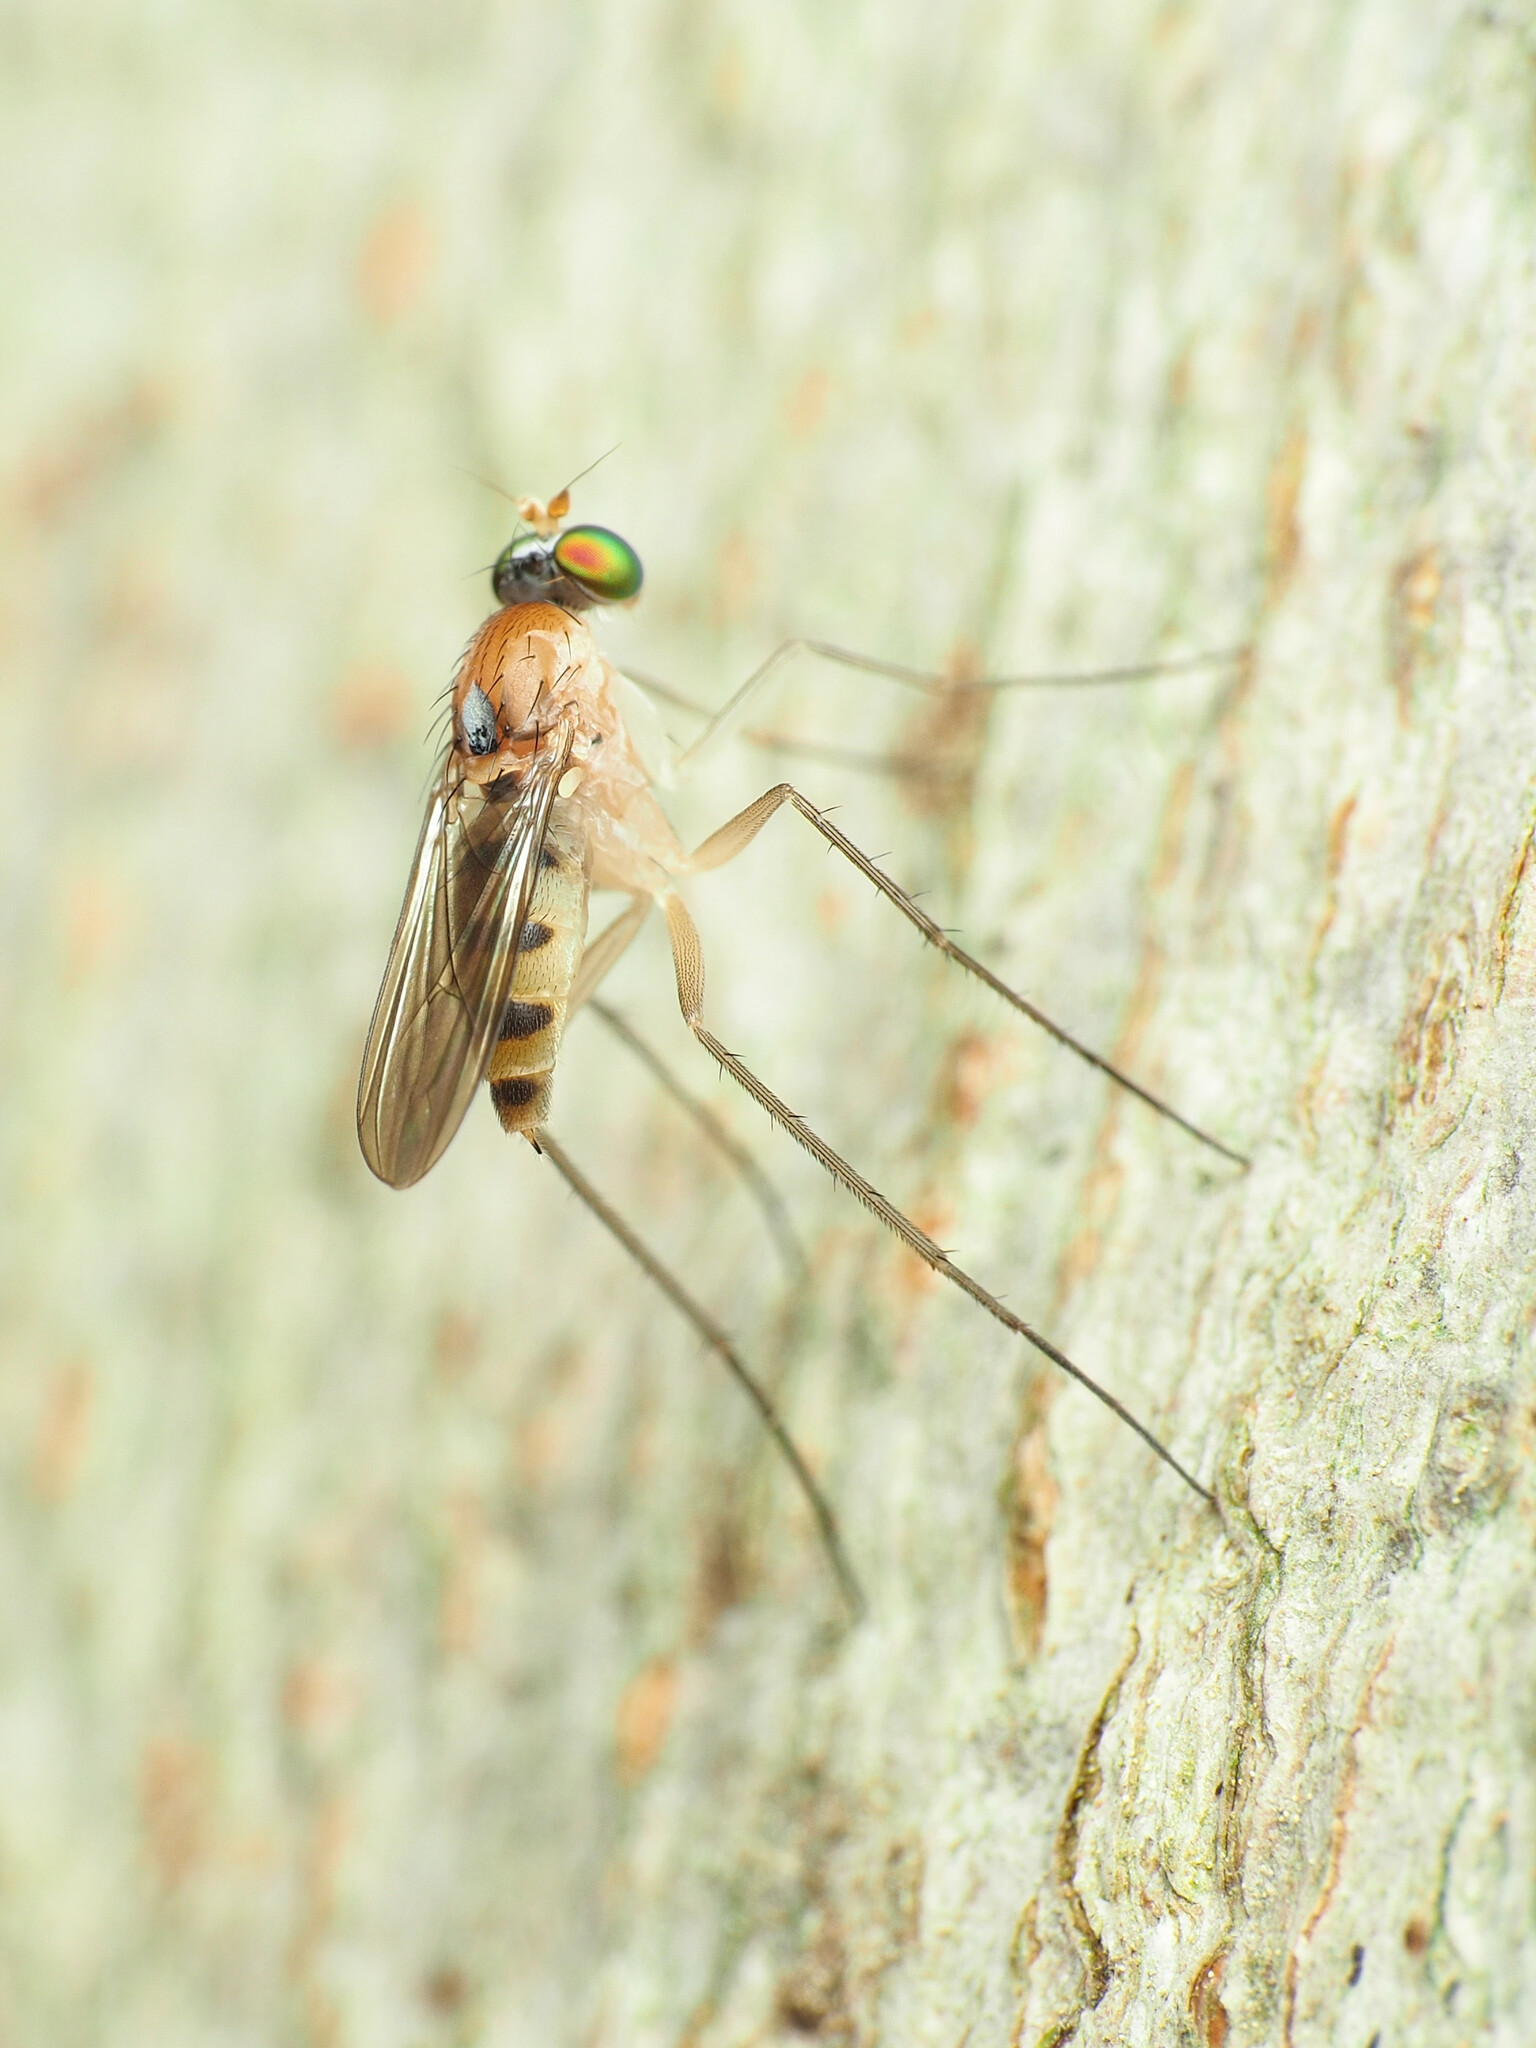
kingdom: Animalia
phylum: Arthropoda
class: Insecta
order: Diptera
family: Dolichopodidae
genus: Neurigona
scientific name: Neurigona rubella
